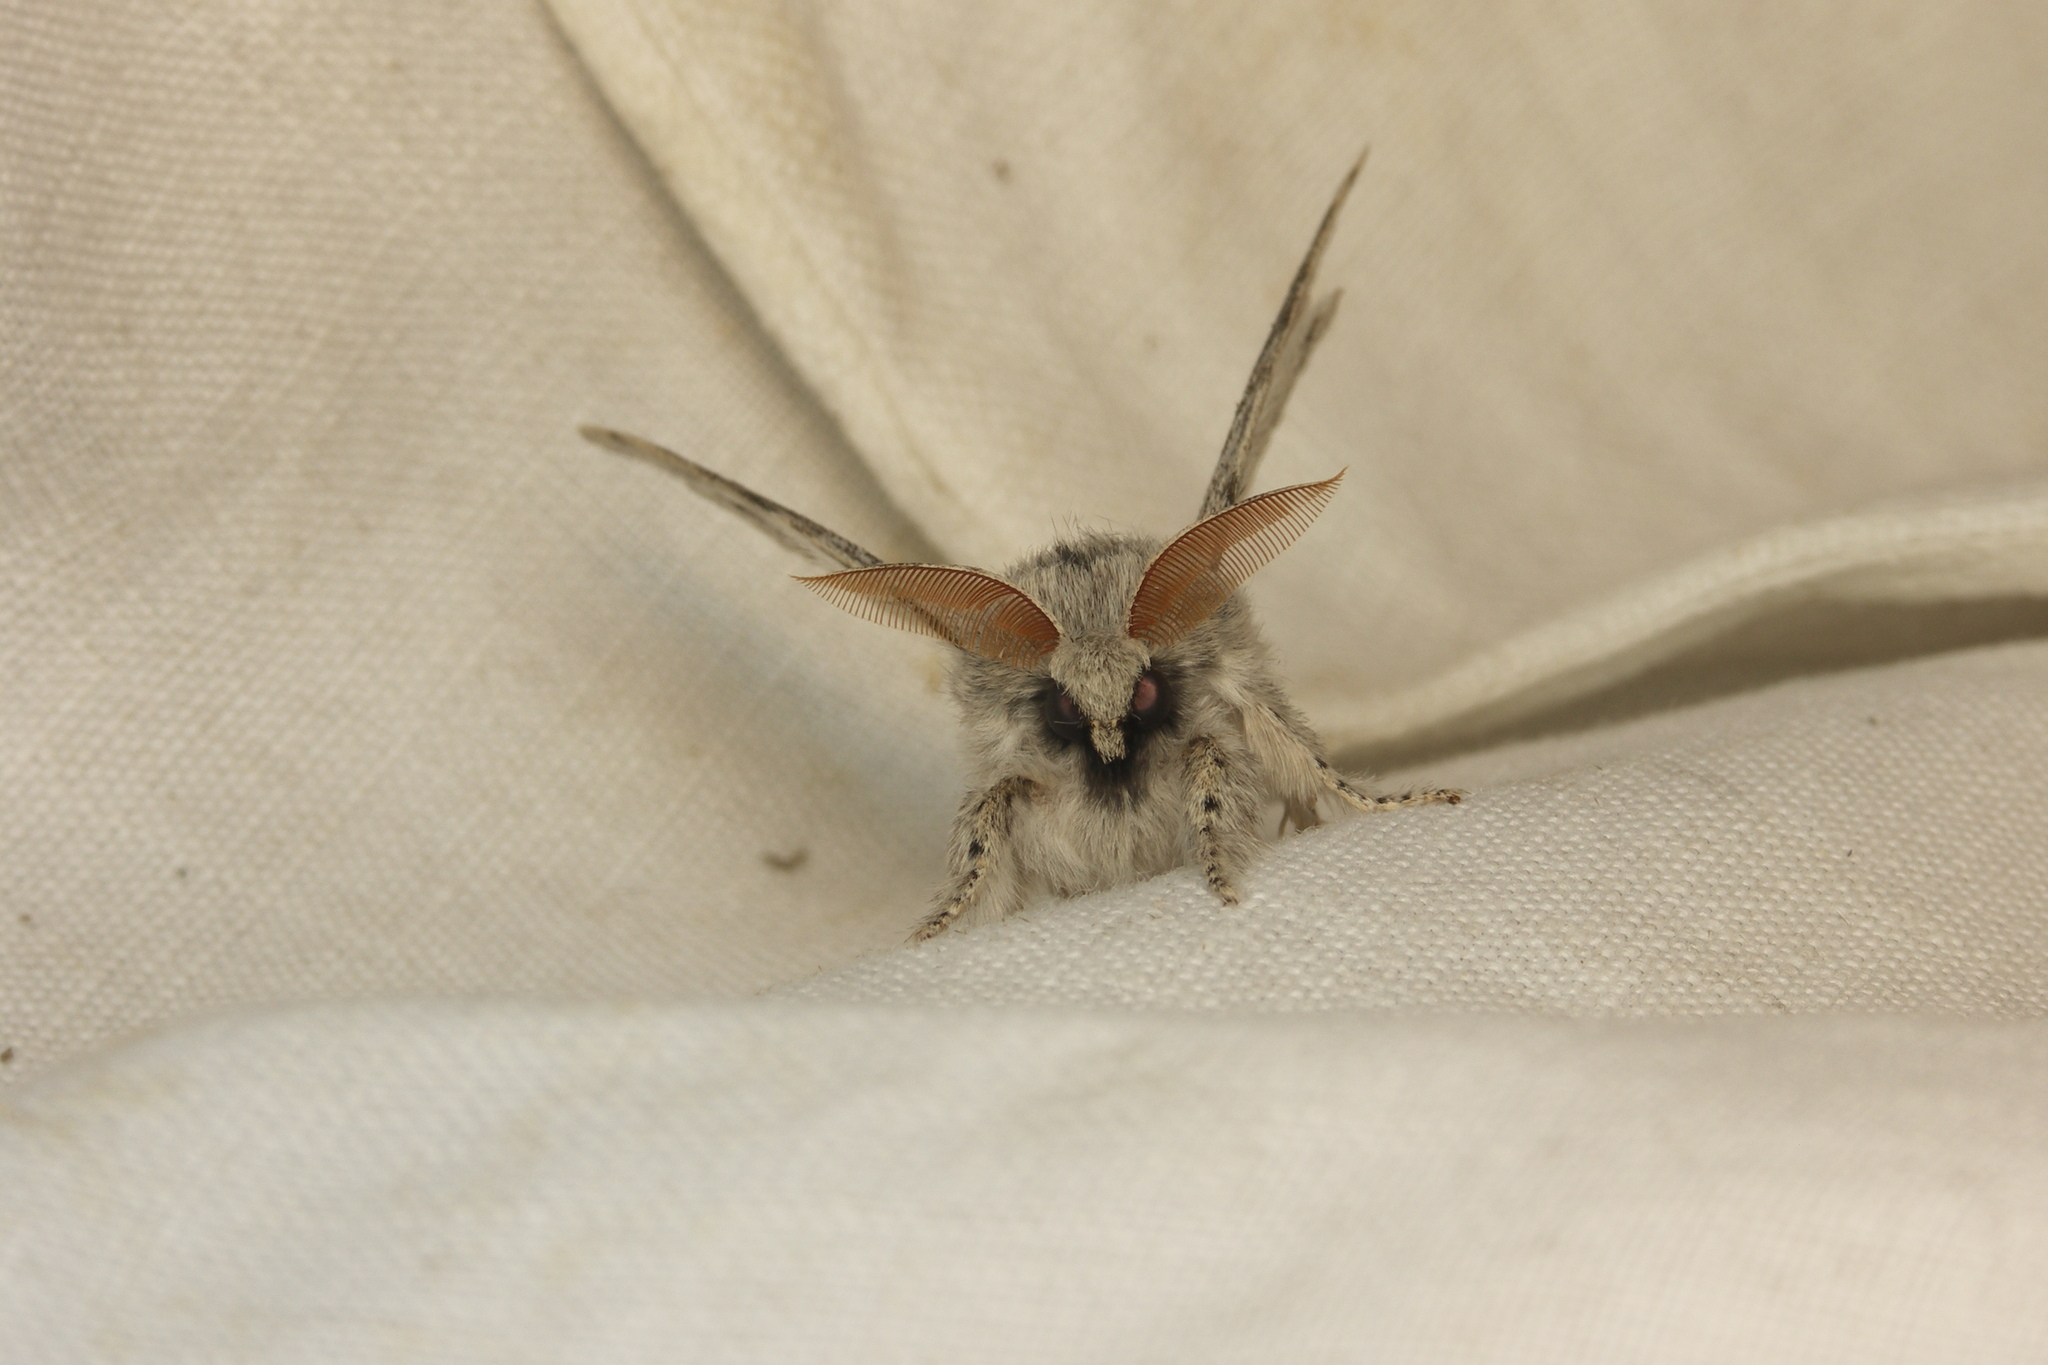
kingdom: Animalia
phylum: Arthropoda
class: Insecta
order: Lepidoptera
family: Erebidae
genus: Calliteara
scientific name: Calliteara pudibunda
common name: Pale tussock
